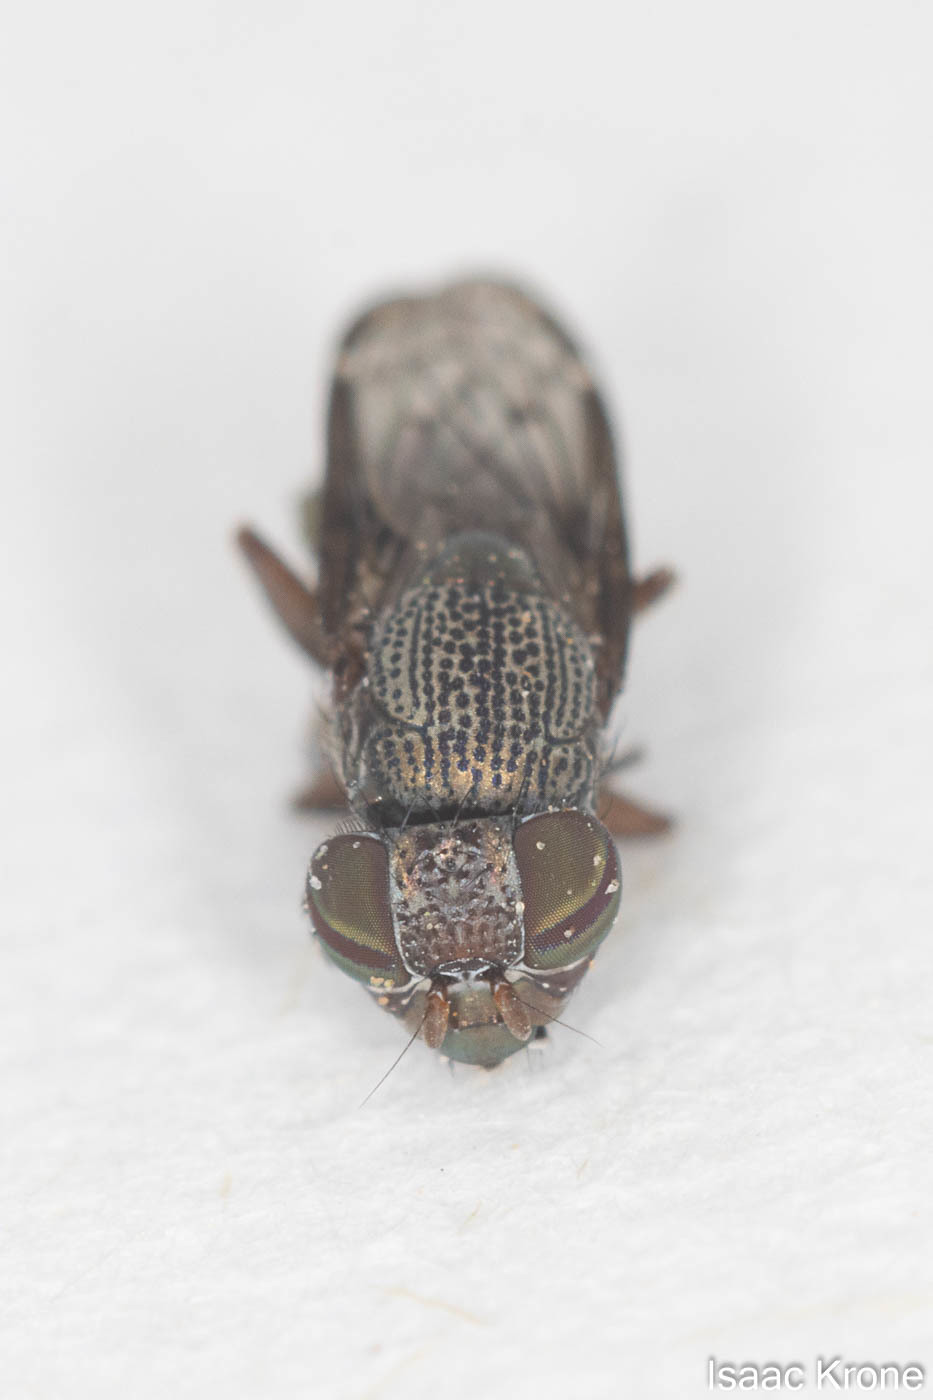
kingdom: Animalia
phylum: Arthropoda
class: Insecta
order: Diptera
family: Ulidiidae
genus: Notogramma
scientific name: Notogramma purpuratum
